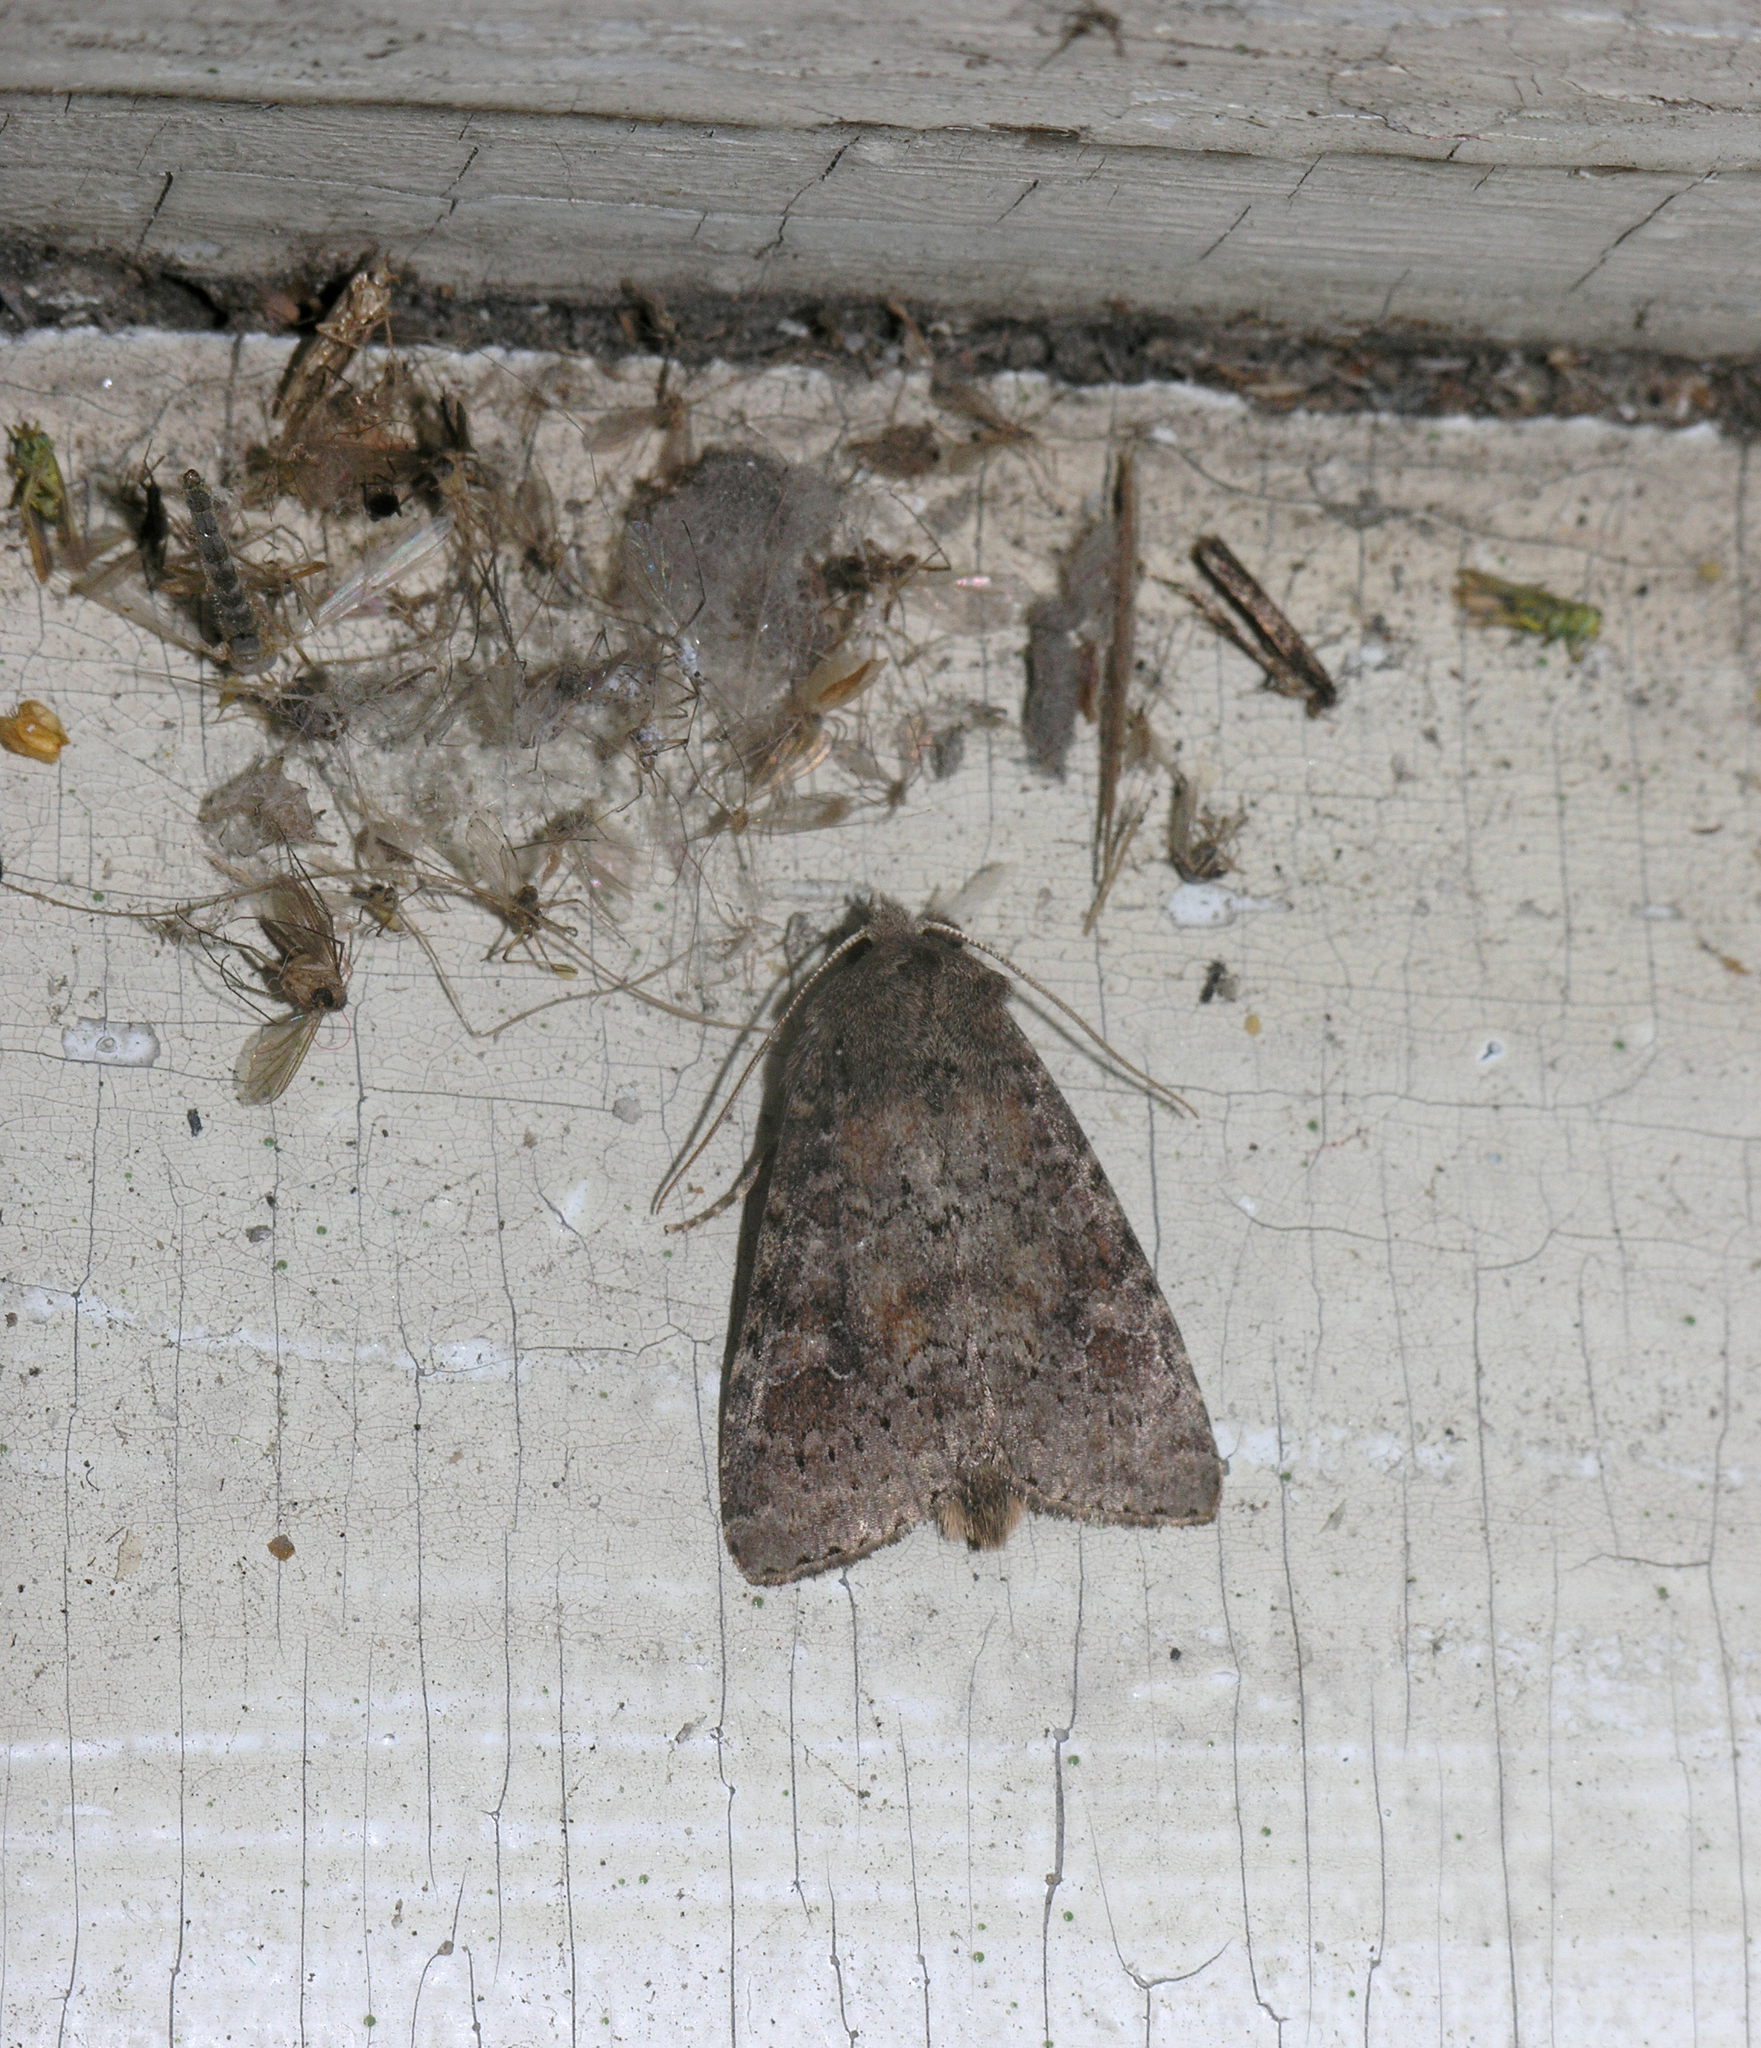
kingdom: Animalia
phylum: Arthropoda
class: Insecta
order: Lepidoptera
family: Noctuidae
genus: Parastichtis
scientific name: Parastichtis suspecta
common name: Suspected
